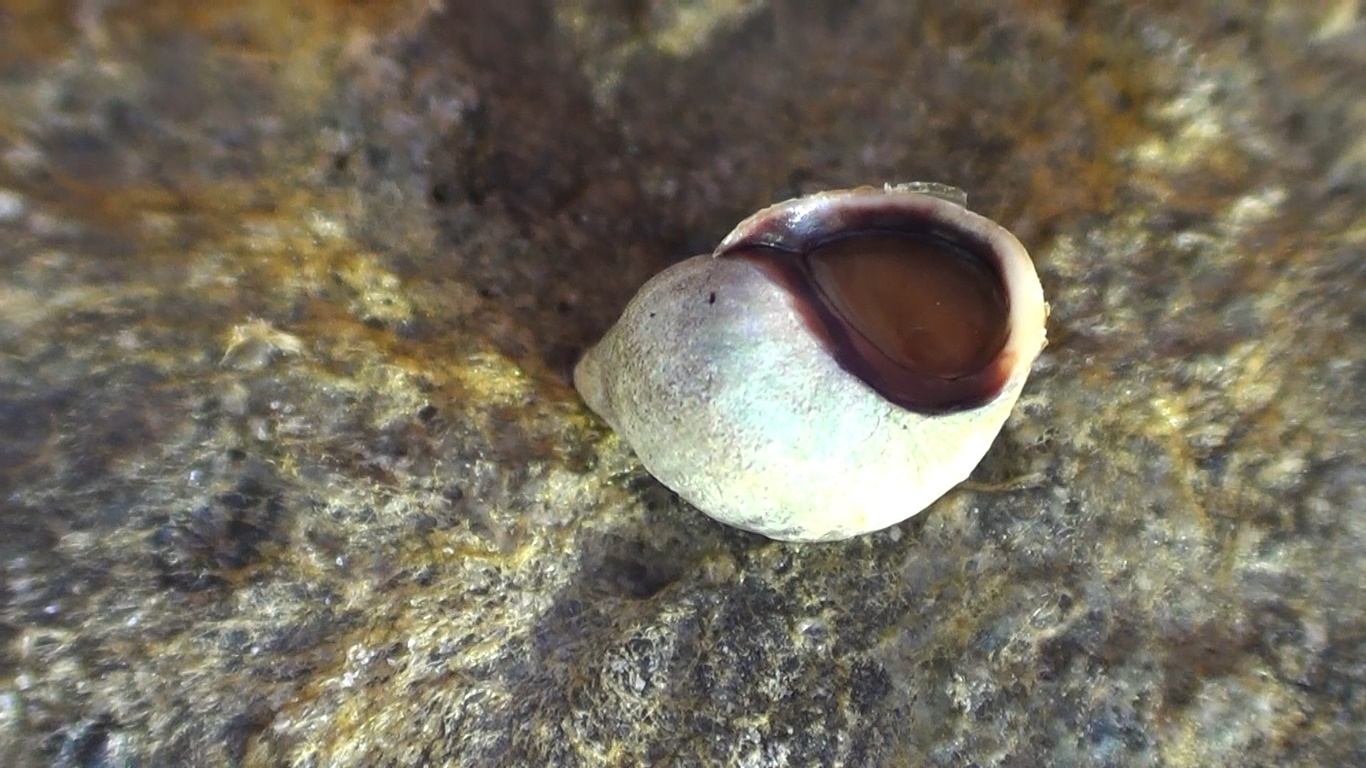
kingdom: Animalia
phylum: Mollusca
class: Gastropoda
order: Littorinimorpha
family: Littorinidae
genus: Melarhaphe
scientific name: Melarhaphe neritoides
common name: Small periwinkle
